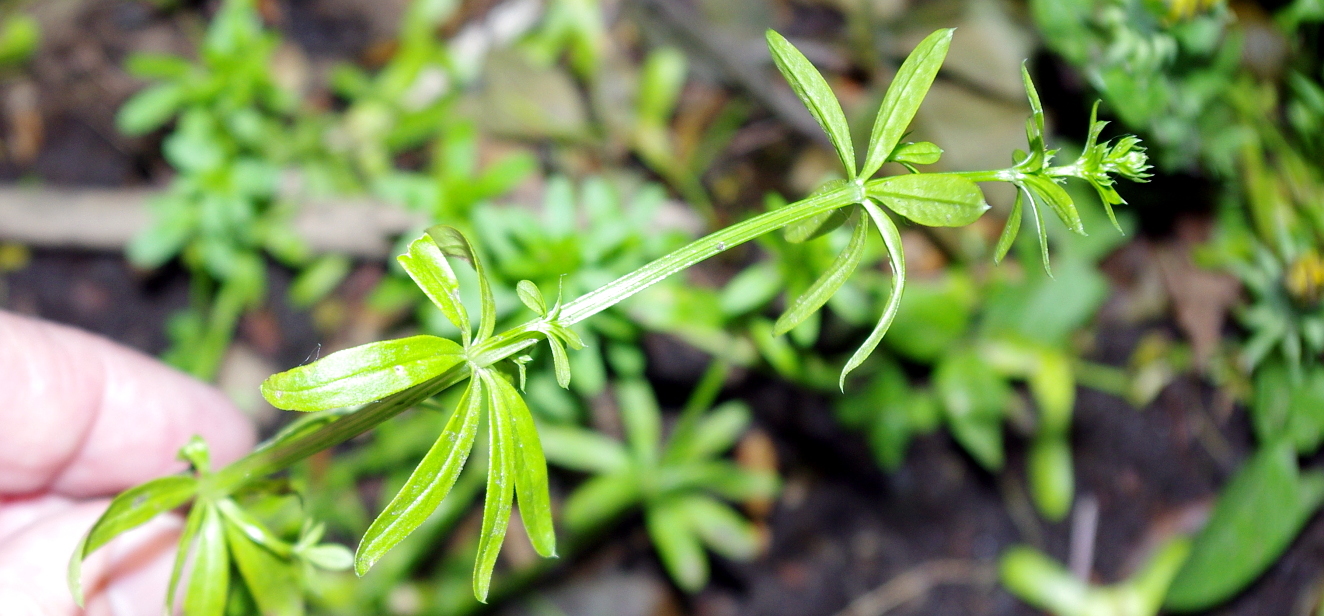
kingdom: Plantae
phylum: Tracheophyta
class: Magnoliopsida
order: Gentianales
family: Rubiaceae
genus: Galium
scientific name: Galium mollugo
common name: Hedge bedstraw
